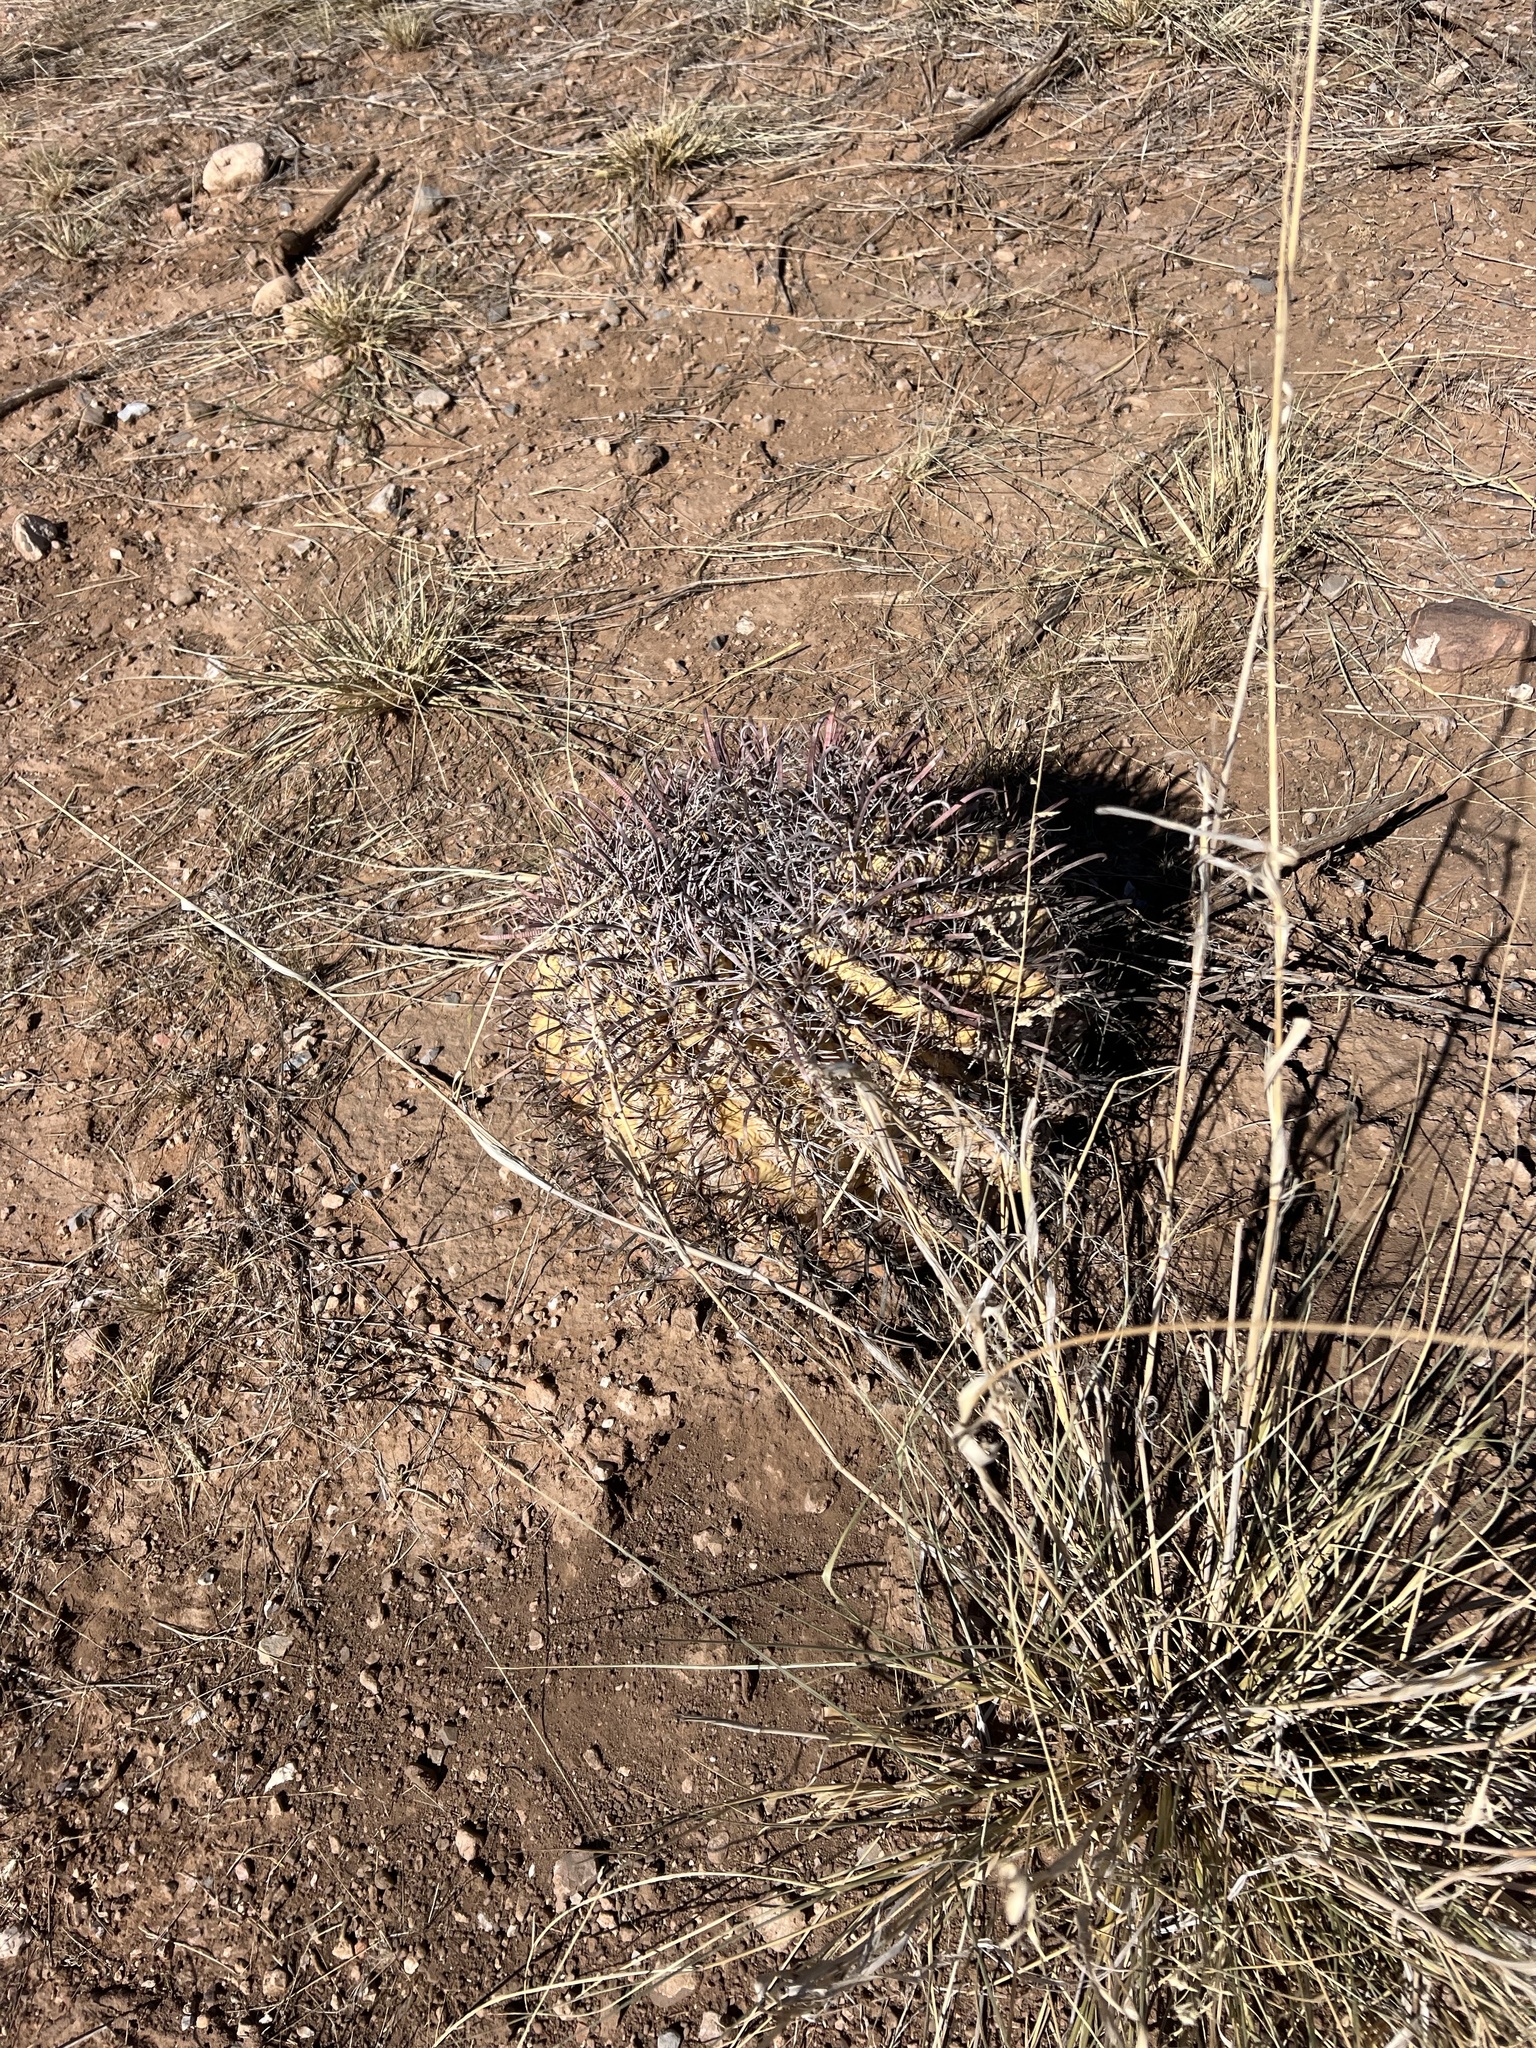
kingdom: Plantae
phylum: Tracheophyta
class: Magnoliopsida
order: Caryophyllales
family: Cactaceae
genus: Ferocactus
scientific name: Ferocactus wislizeni
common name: Candy barrel cactus
